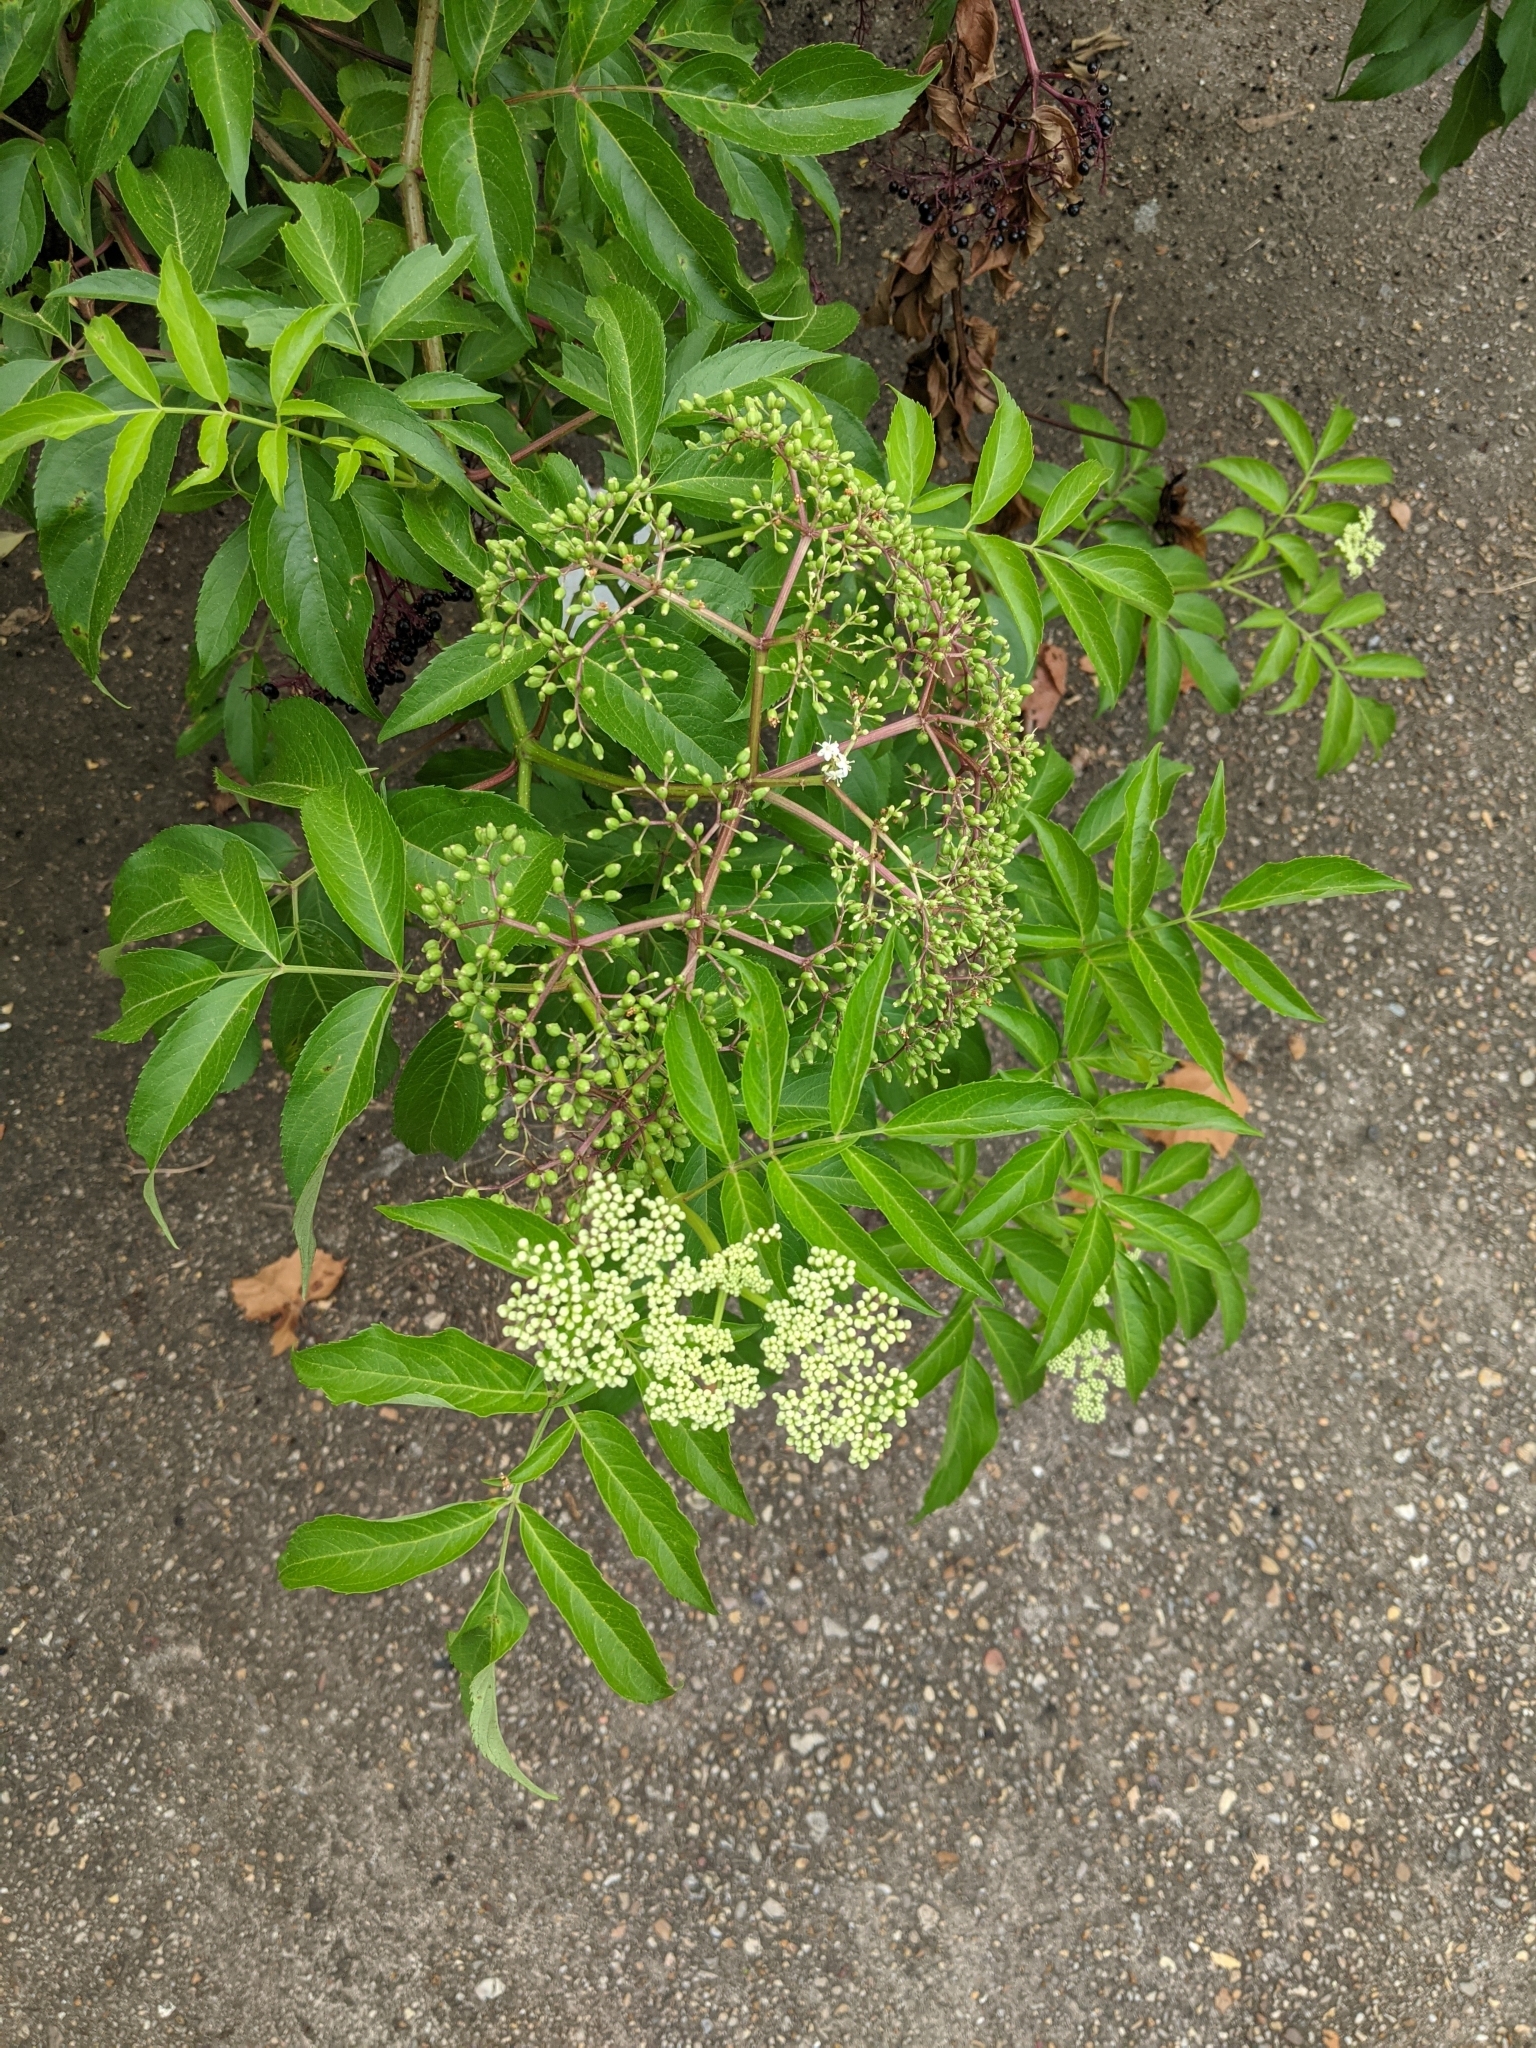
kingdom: Plantae
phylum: Tracheophyta
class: Magnoliopsida
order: Dipsacales
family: Viburnaceae
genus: Sambucus
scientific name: Sambucus canadensis
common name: American elder
